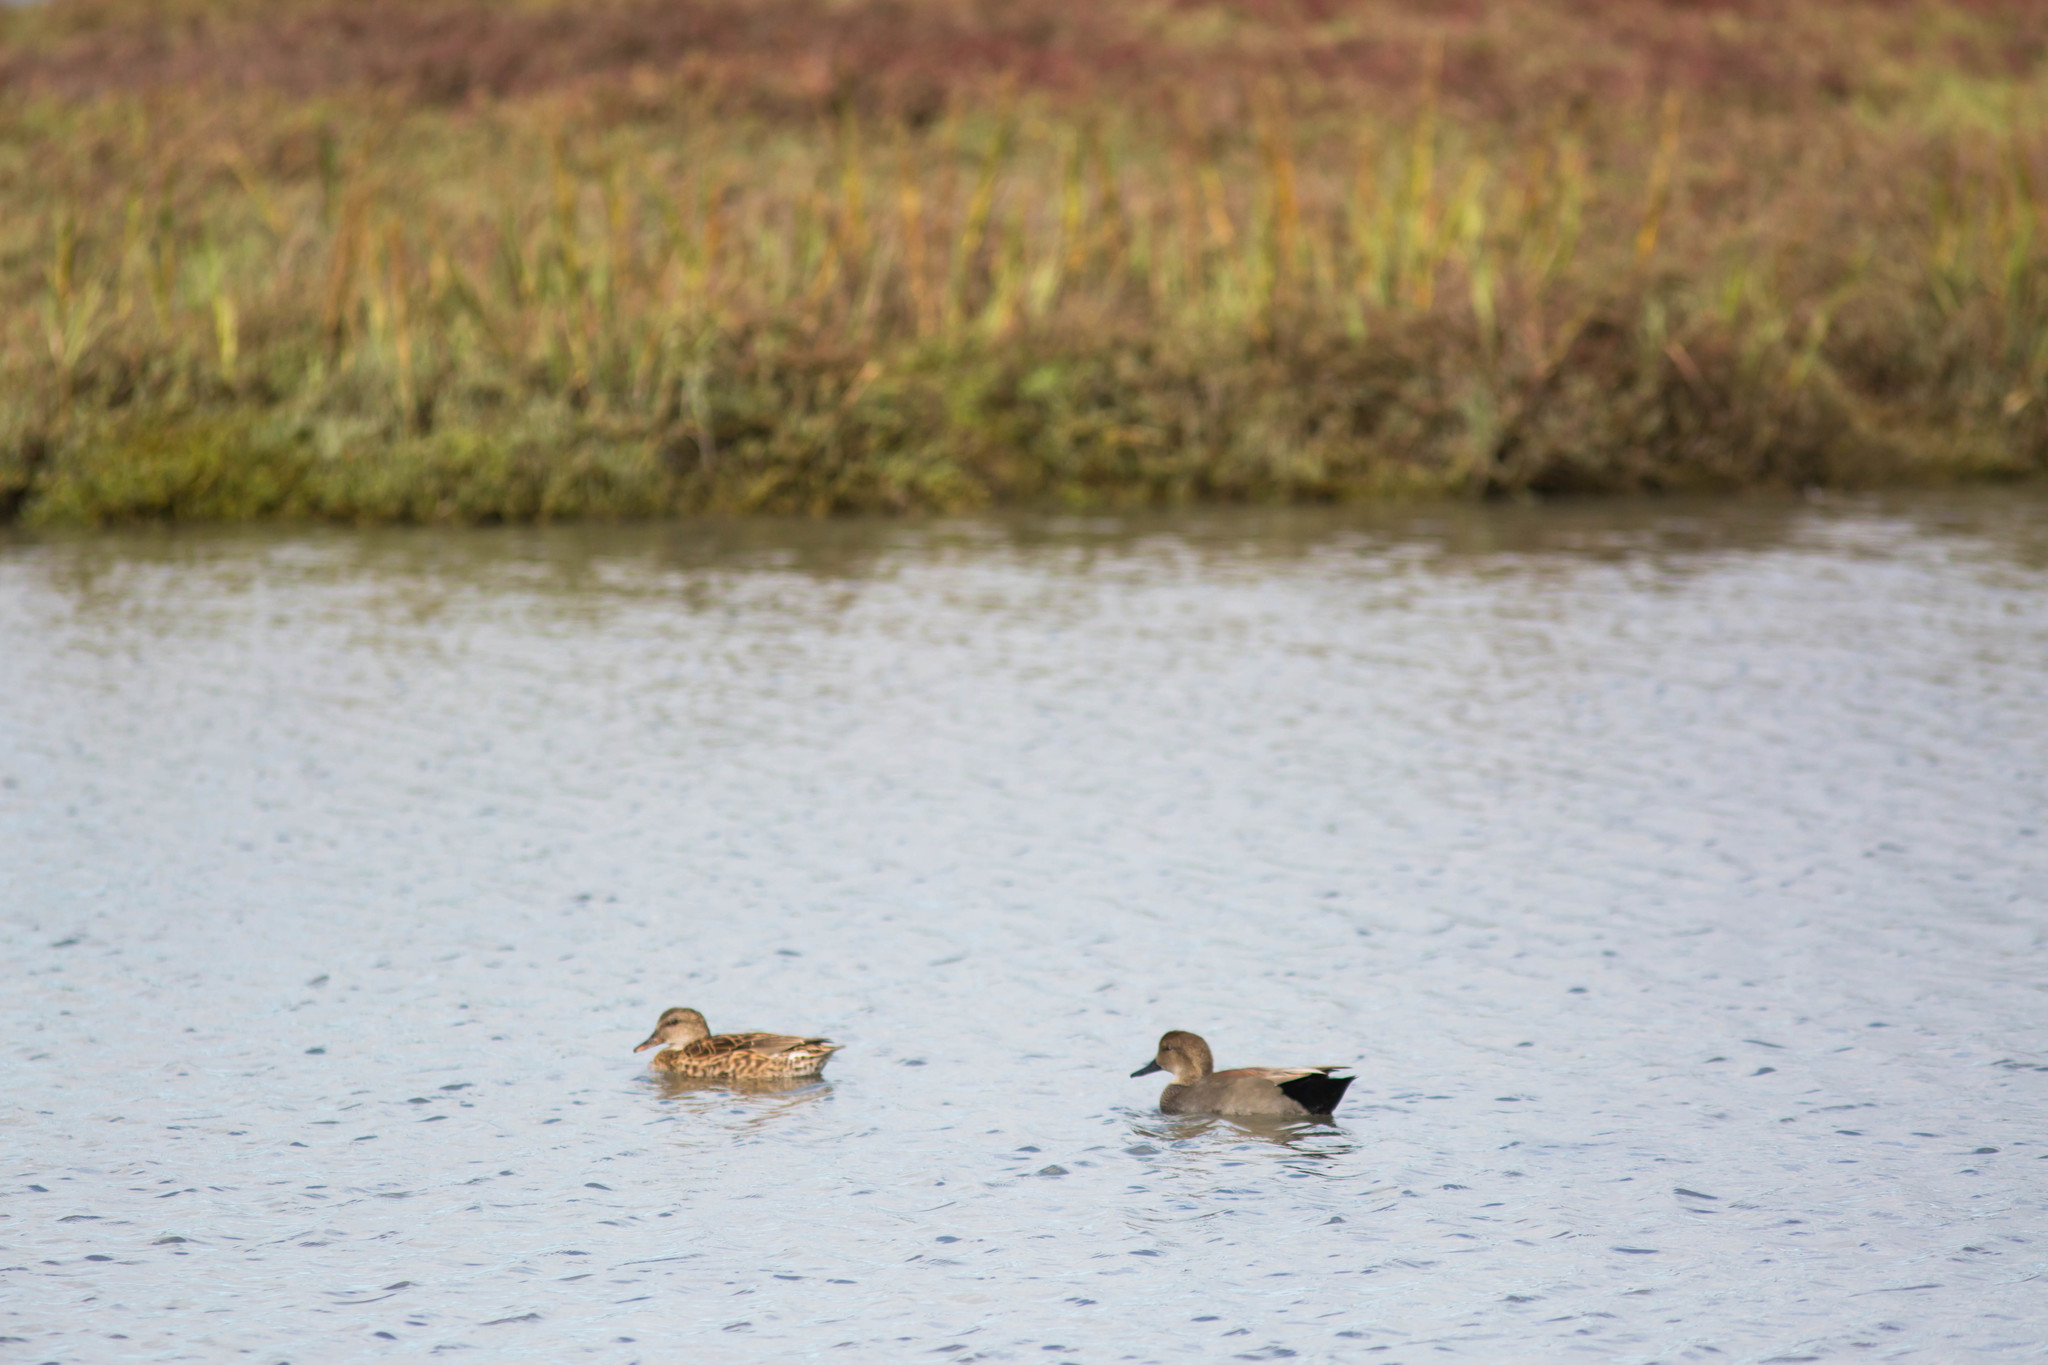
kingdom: Animalia
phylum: Chordata
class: Aves
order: Anseriformes
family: Anatidae
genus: Mareca
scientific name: Mareca strepera
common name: Gadwall
